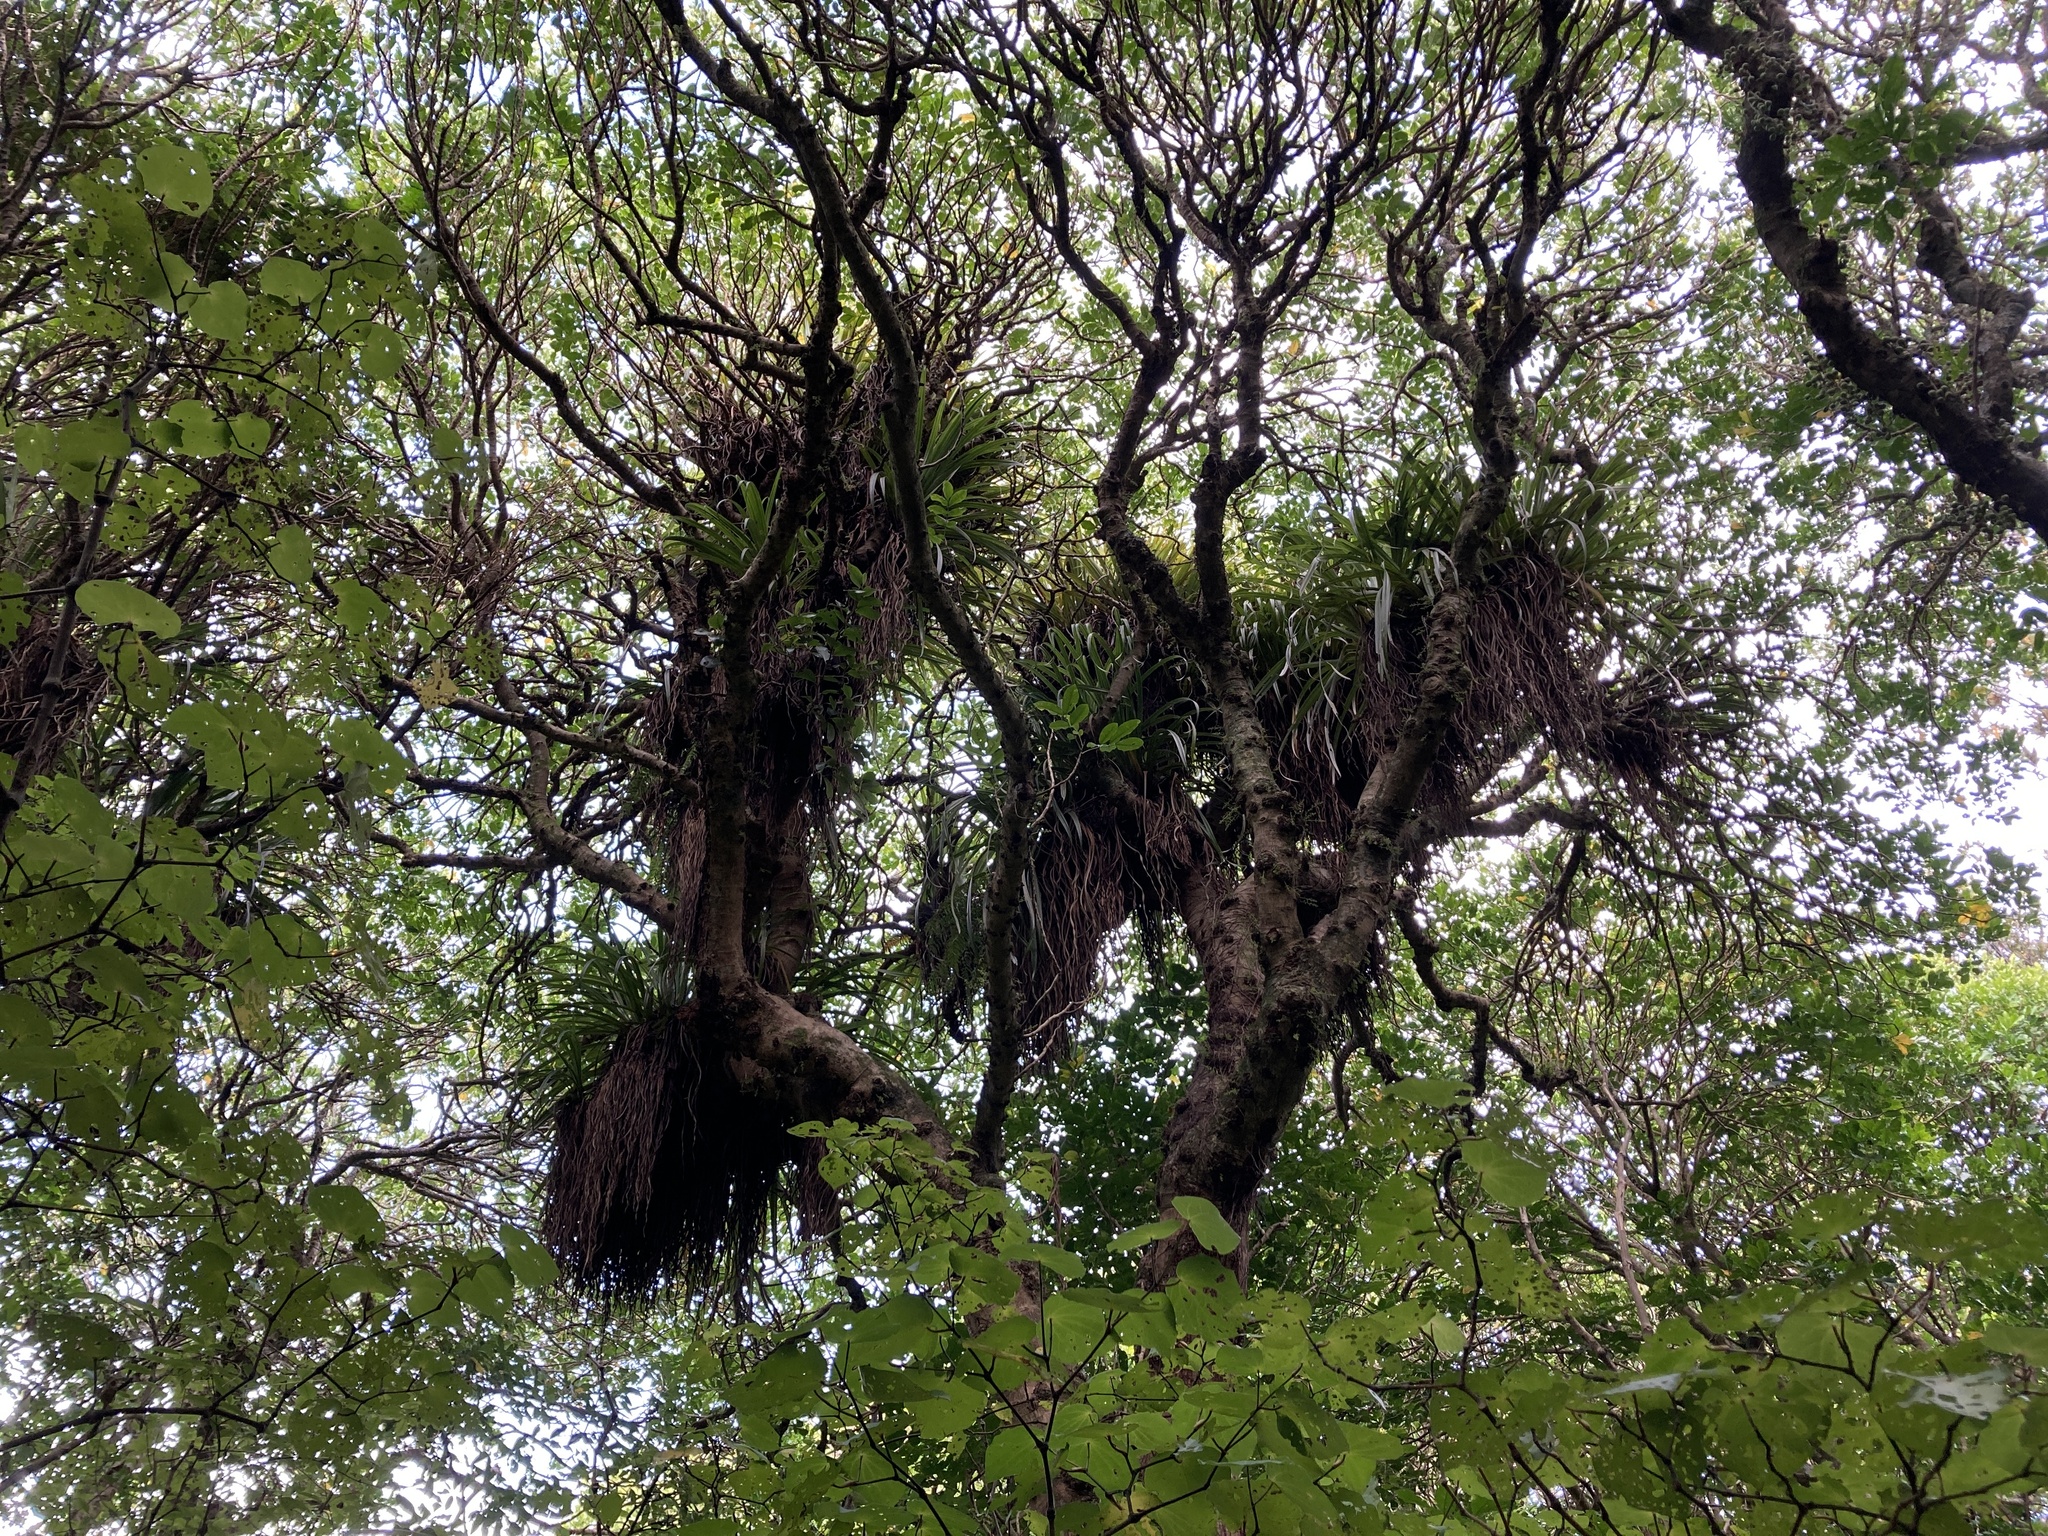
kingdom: Plantae
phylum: Tracheophyta
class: Liliopsida
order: Asparagales
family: Asteliaceae
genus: Astelia
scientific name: Astelia hastata
